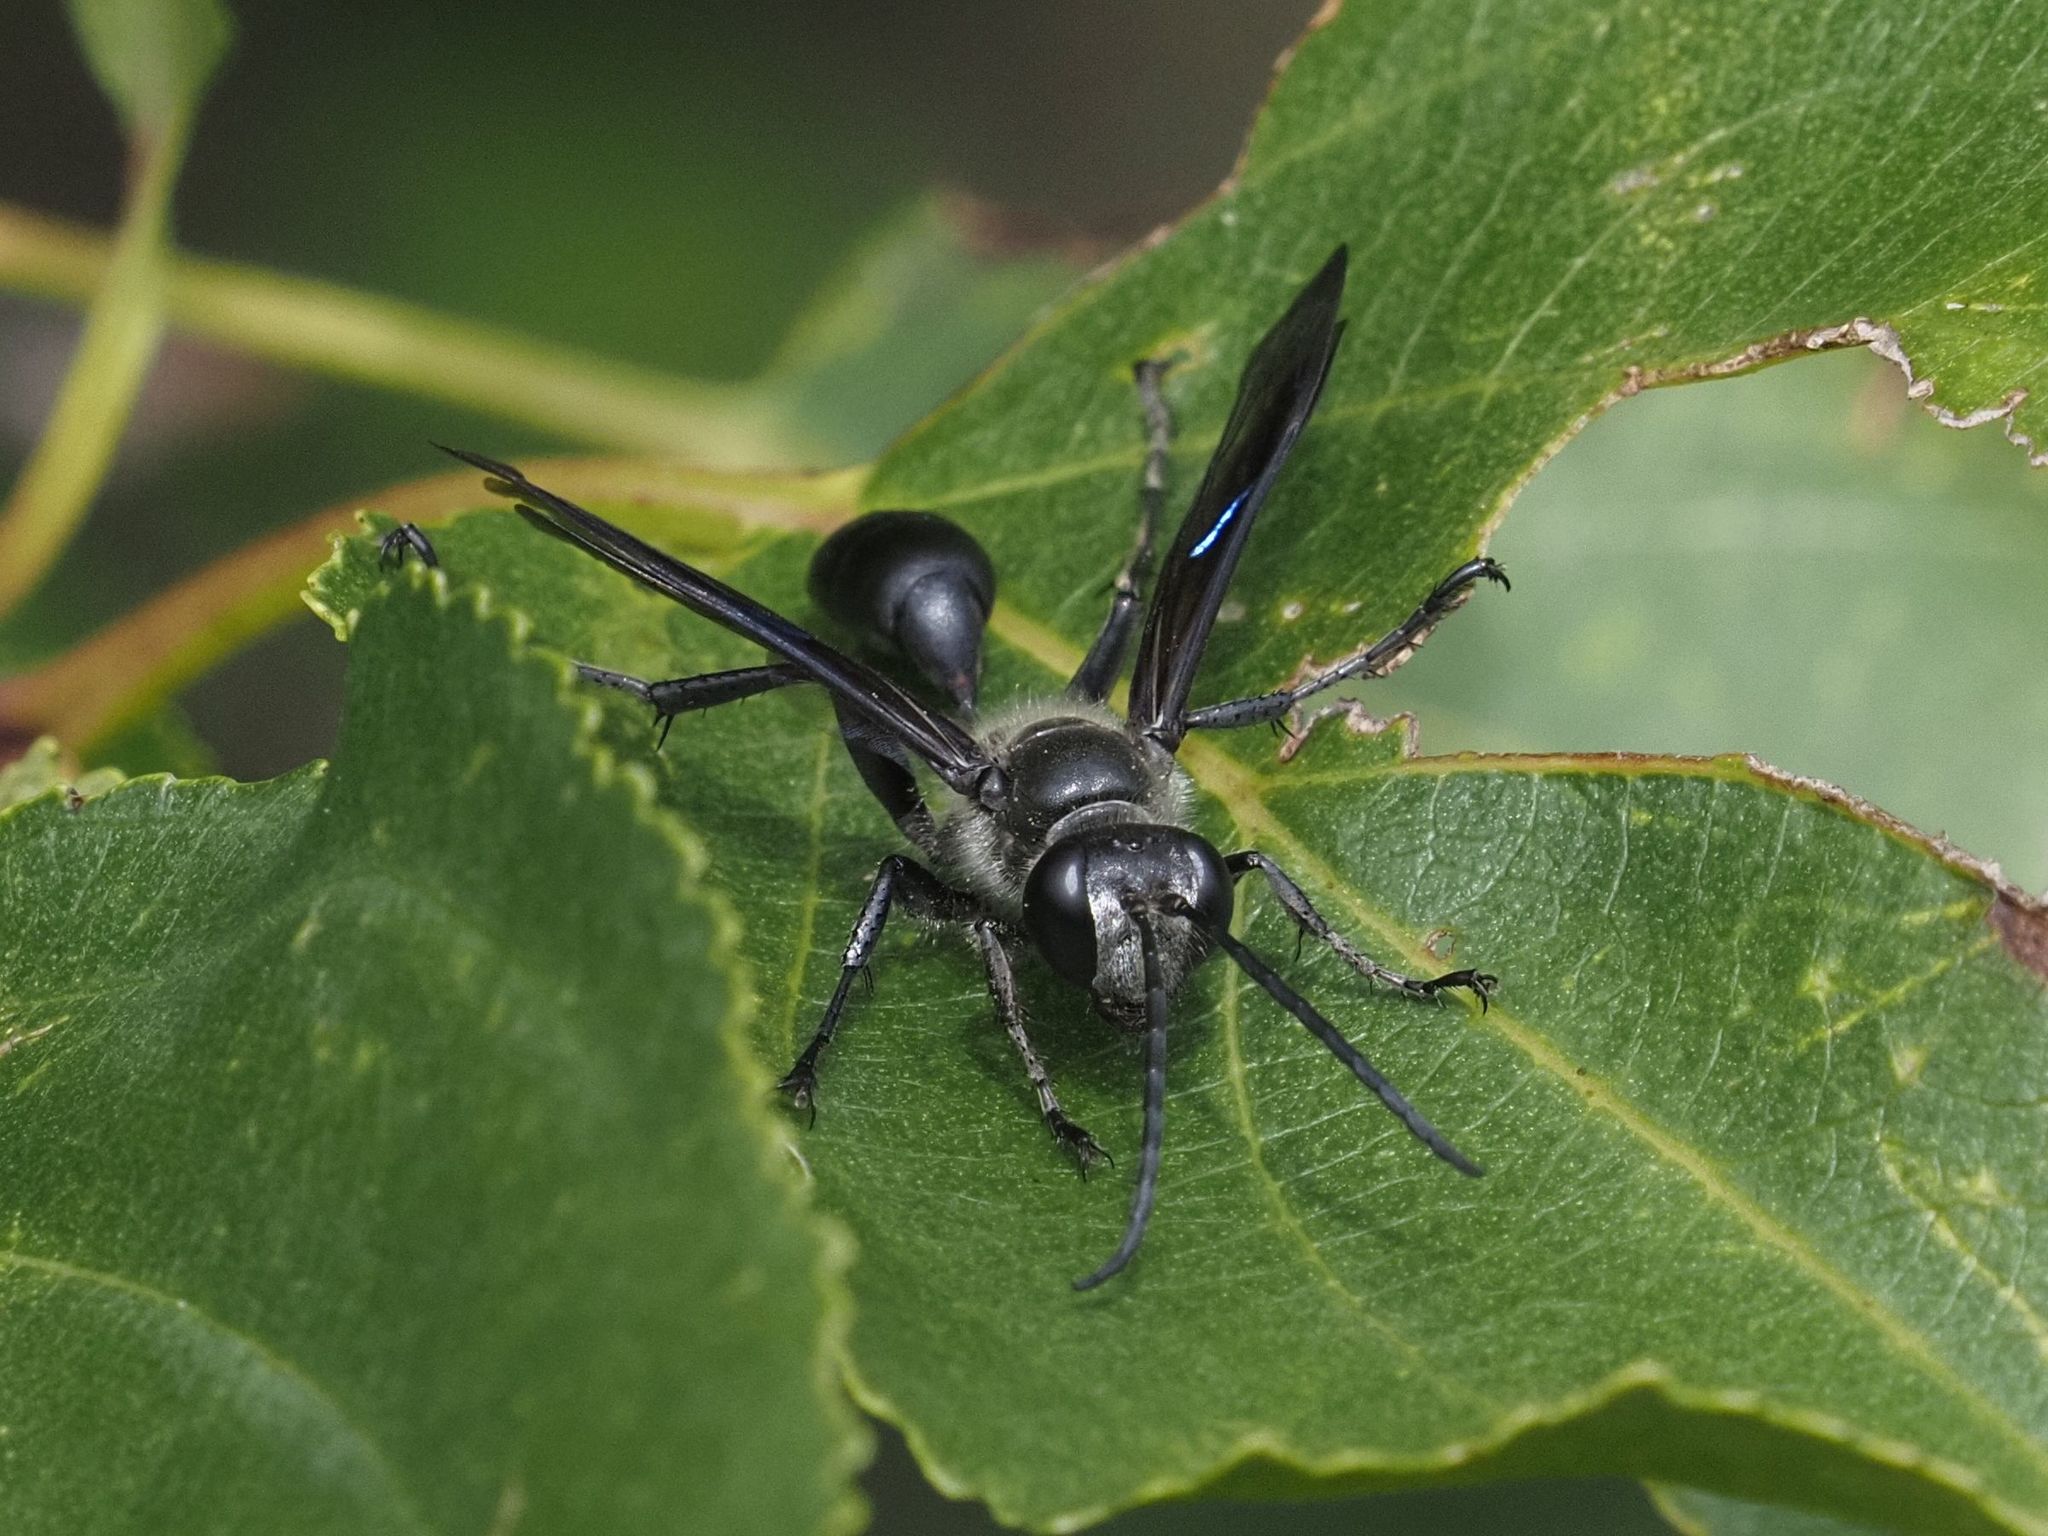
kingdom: Animalia
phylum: Arthropoda
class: Insecta
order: Hymenoptera
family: Sphecidae
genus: Isodontia
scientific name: Isodontia mexicana
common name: Mud dauber
